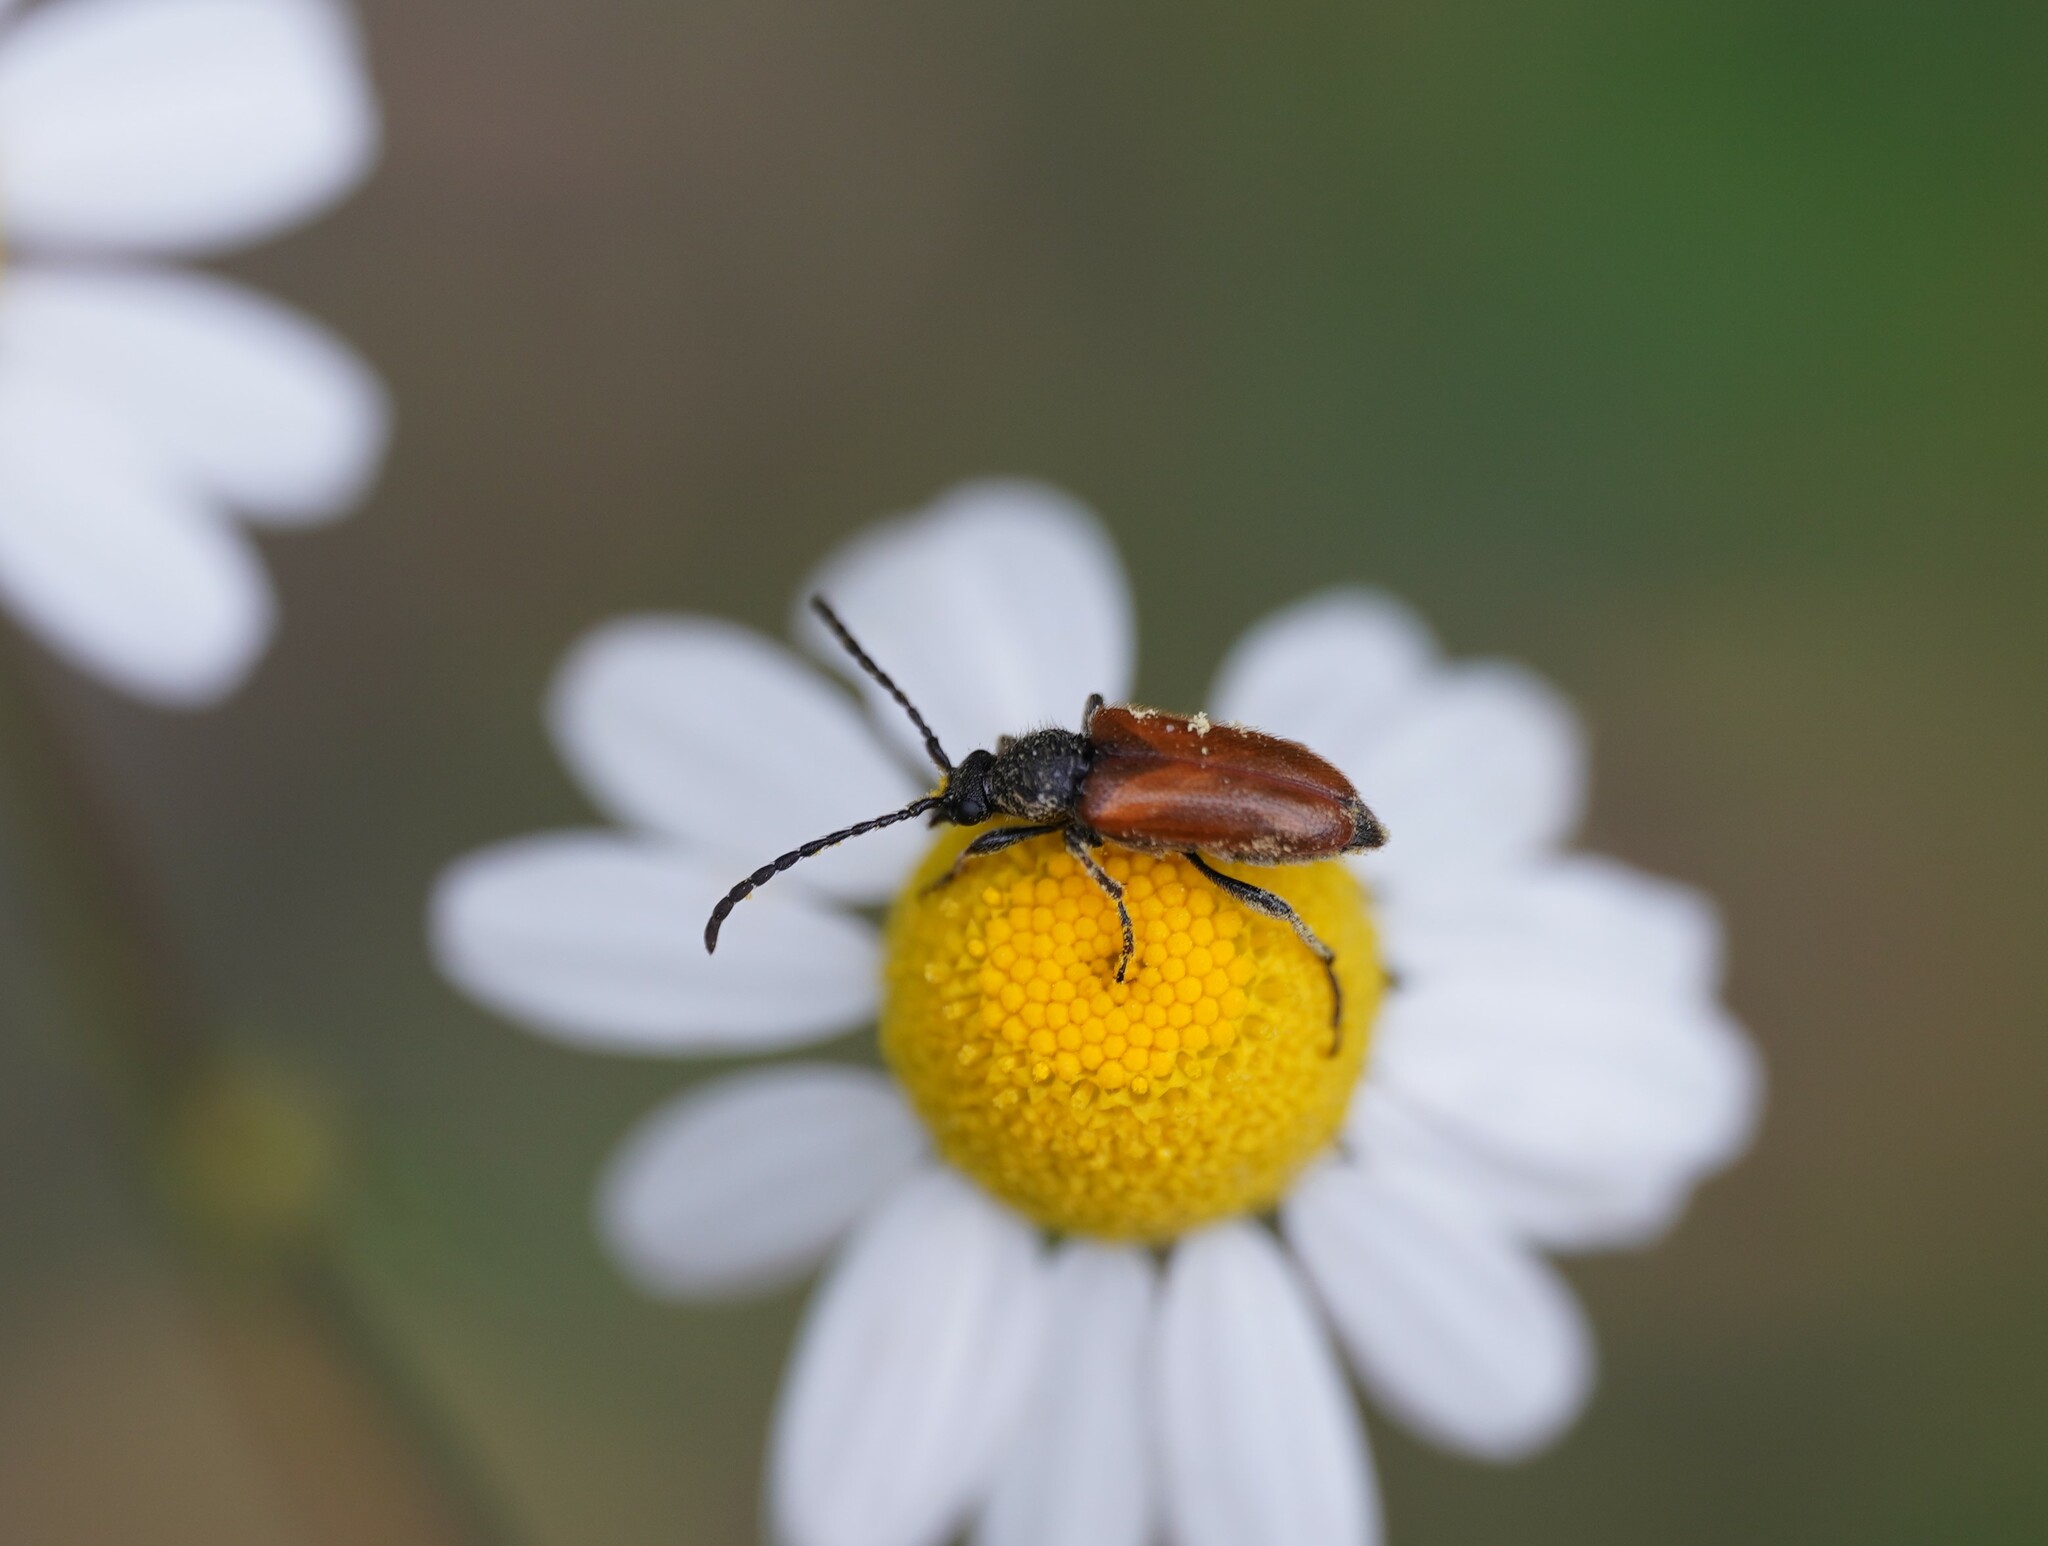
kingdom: Animalia
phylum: Arthropoda
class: Insecta
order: Coleoptera
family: Cerambycidae
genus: Pseudovadonia
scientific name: Pseudovadonia livida
